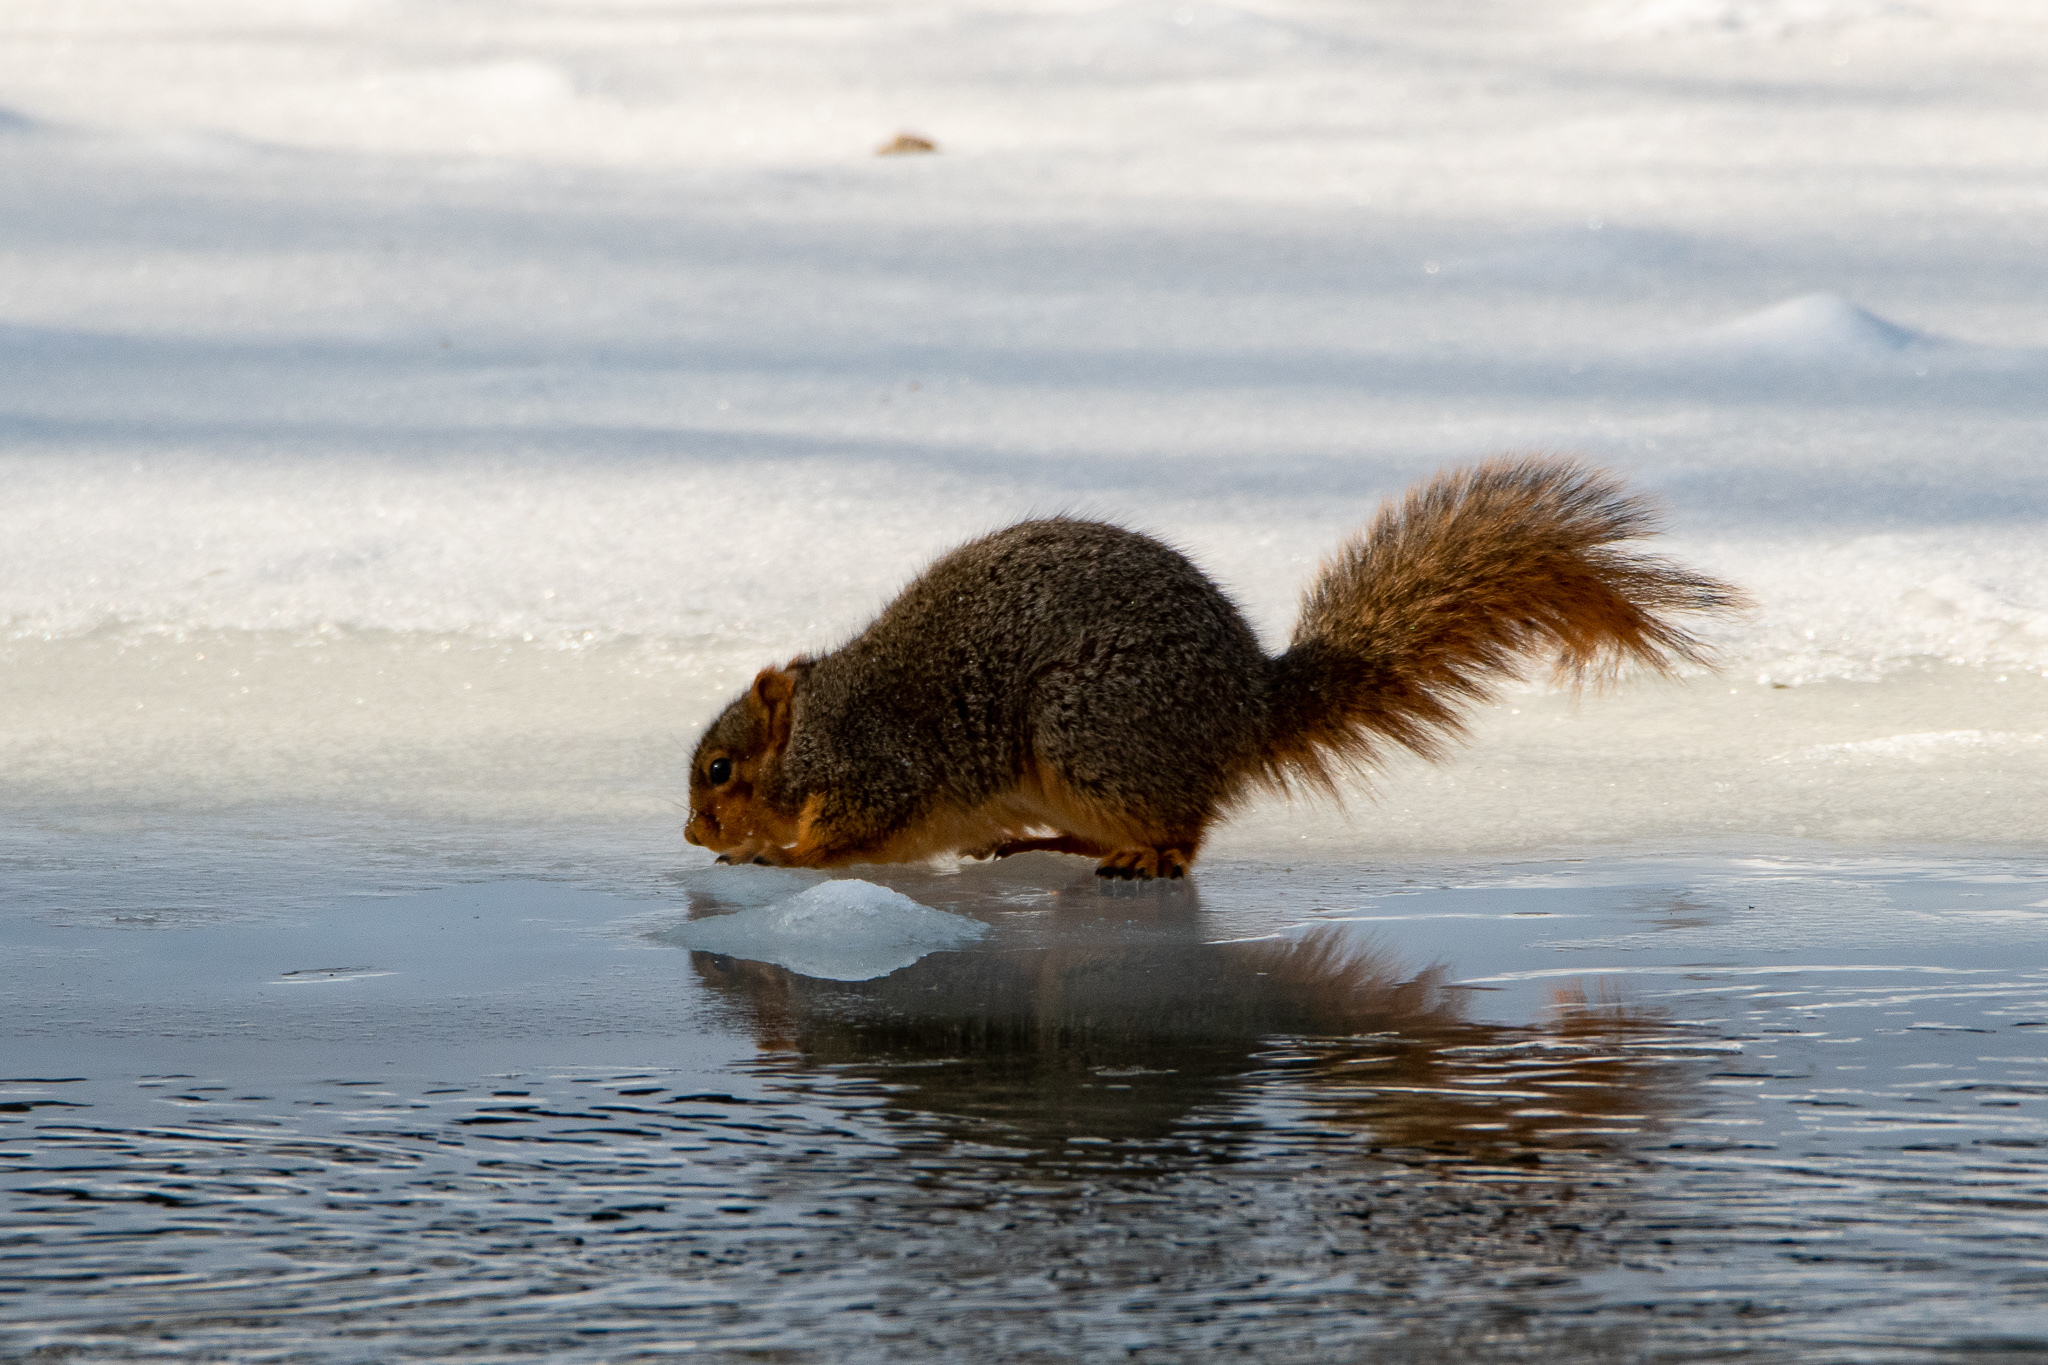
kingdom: Animalia
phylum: Chordata
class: Mammalia
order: Rodentia
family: Sciuridae
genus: Sciurus
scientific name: Sciurus niger
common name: Fox squirrel
